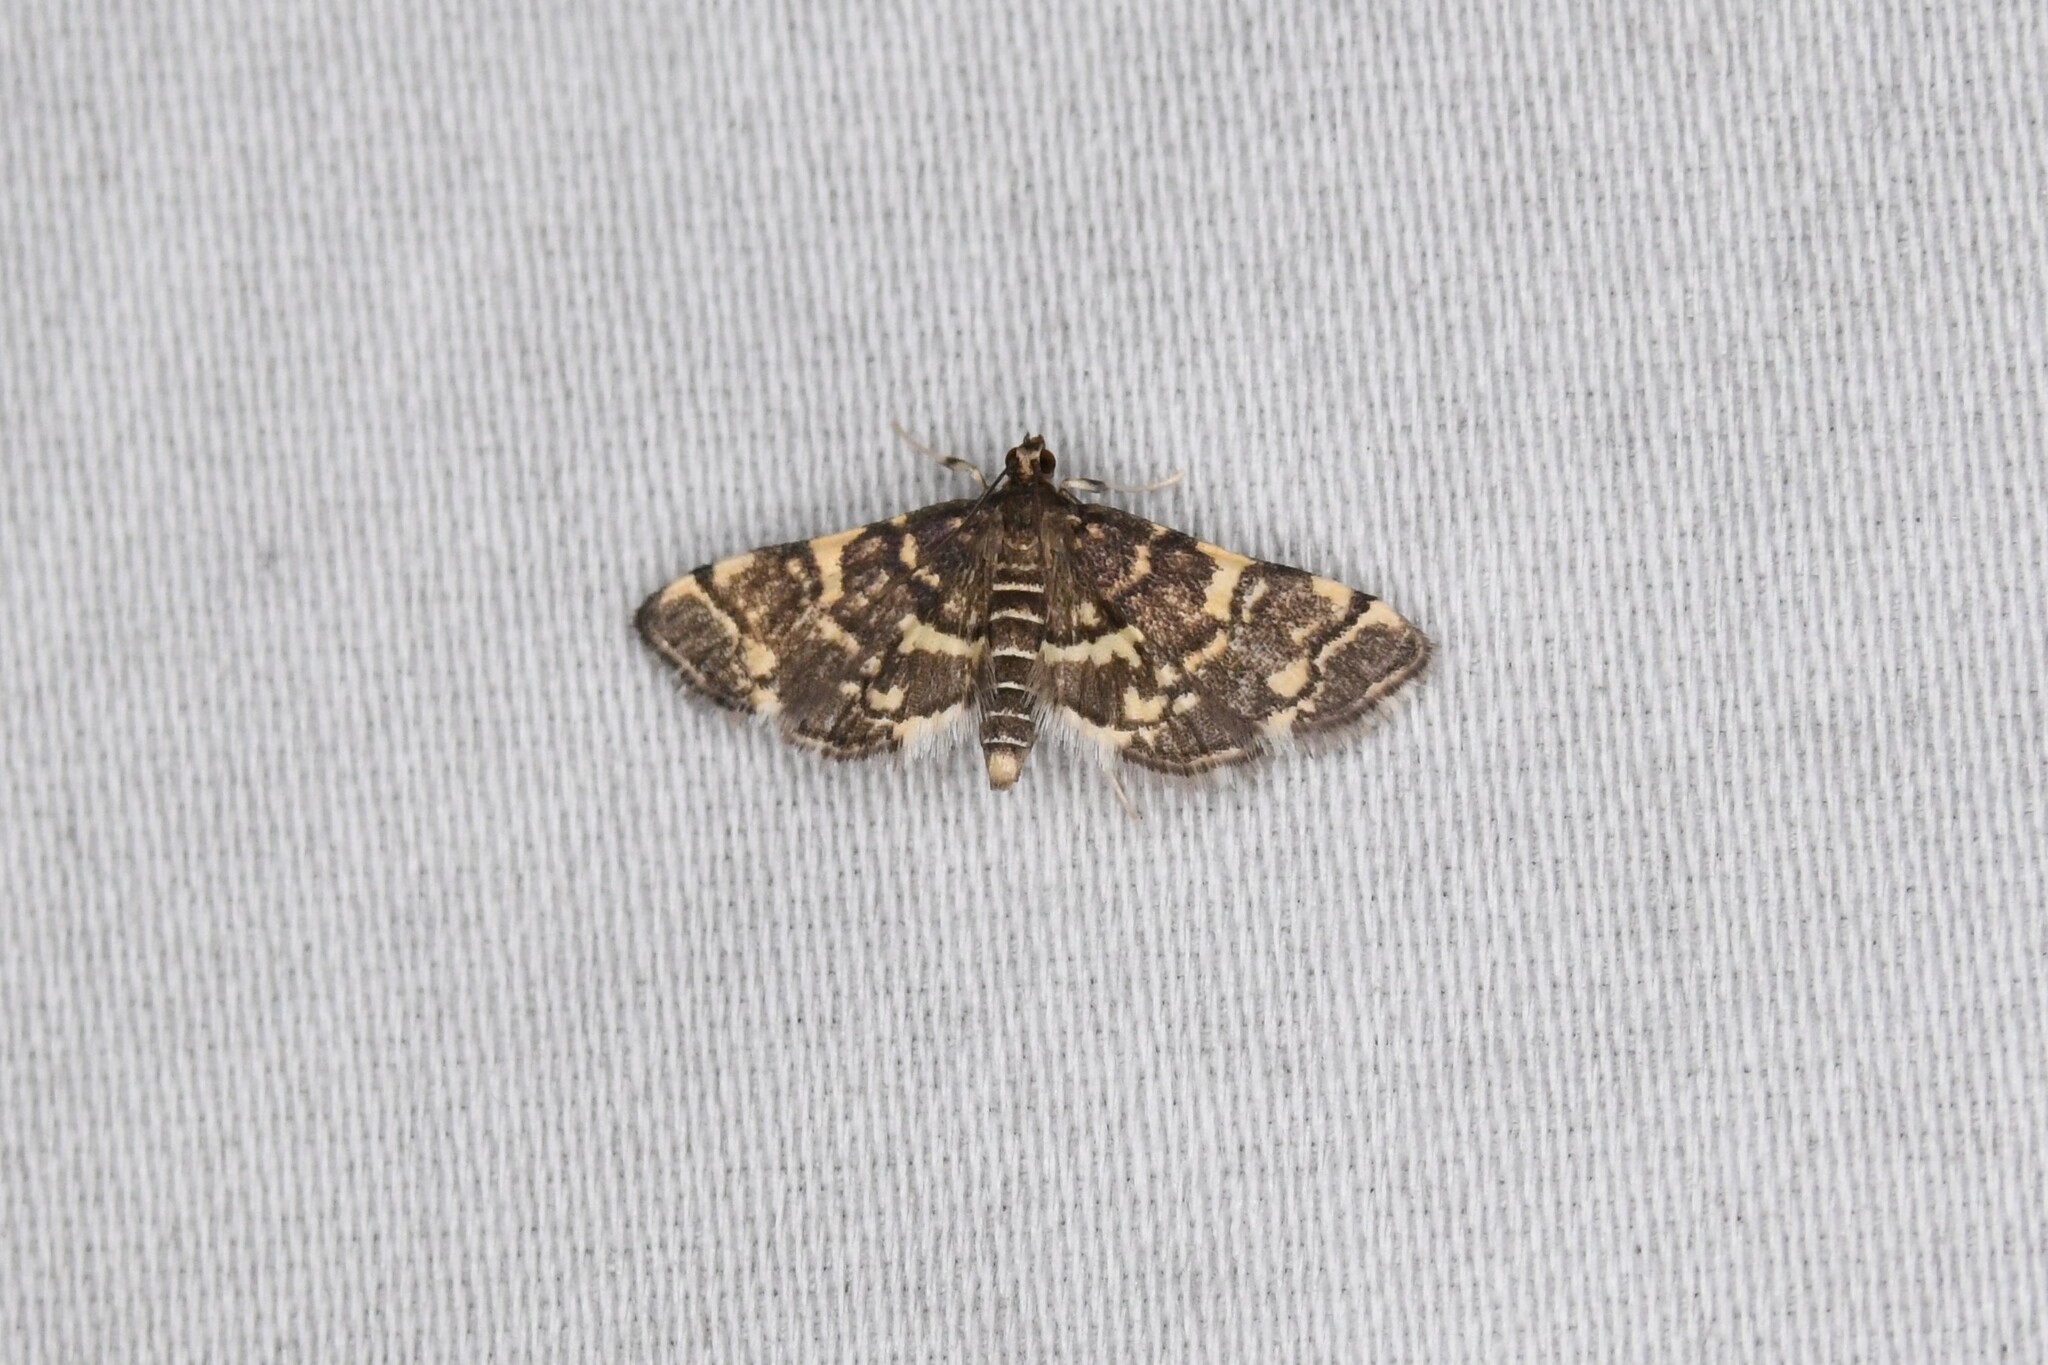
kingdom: Animalia
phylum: Arthropoda
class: Insecta
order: Lepidoptera
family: Crambidae
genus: Anageshna
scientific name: Anageshna primordialis
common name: Yellow-spotted webworm moth
